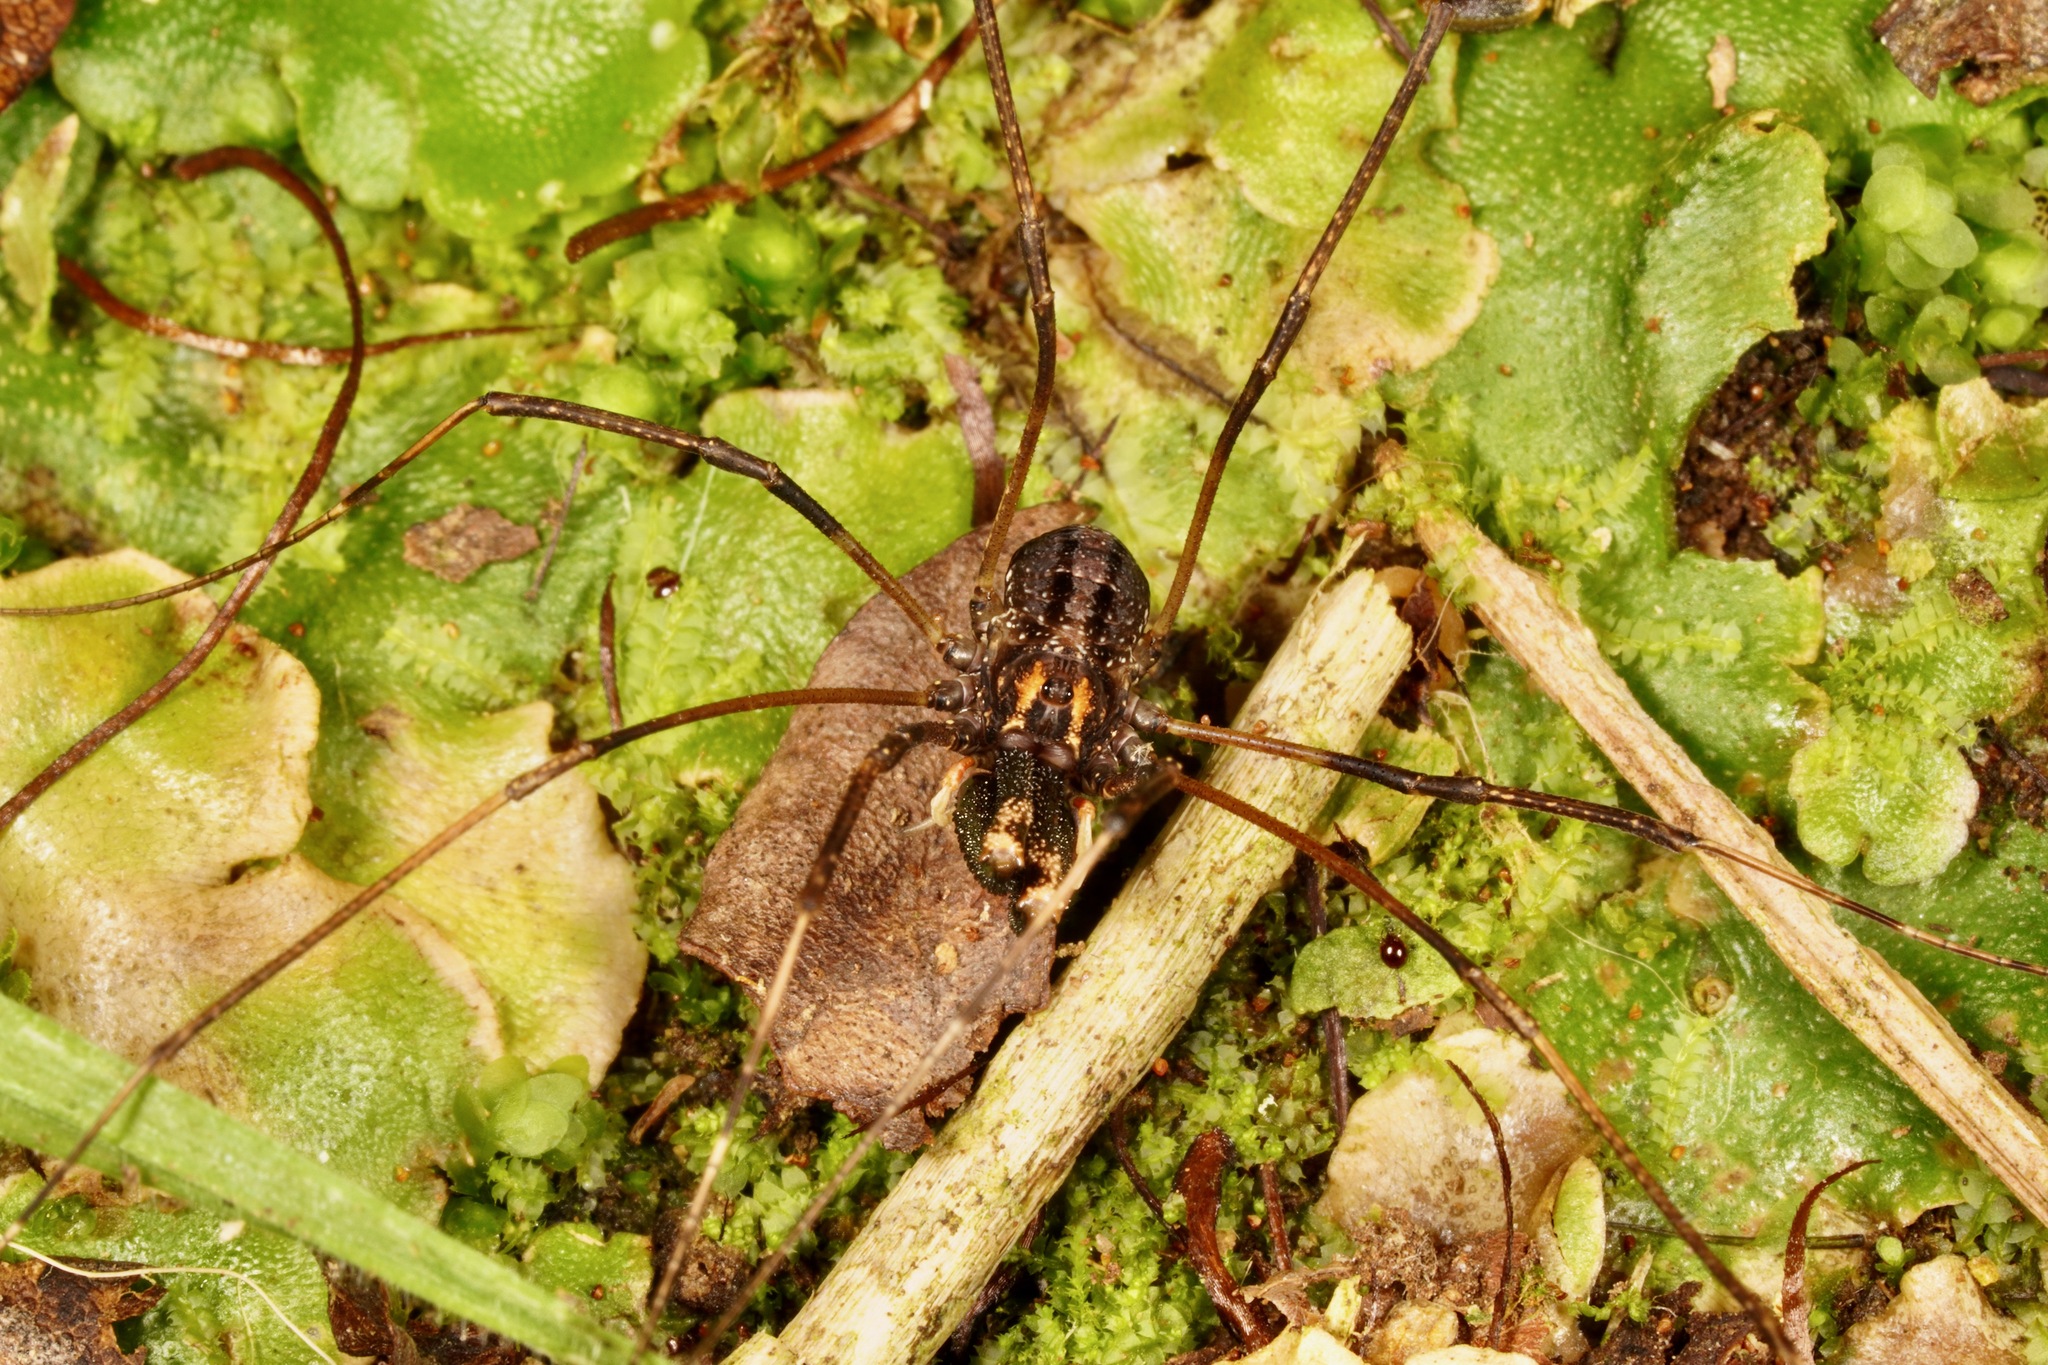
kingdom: Animalia
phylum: Arthropoda
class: Arachnida
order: Opiliones
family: Neopilionidae
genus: Forsteropsalis
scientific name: Forsteropsalis inconstans
